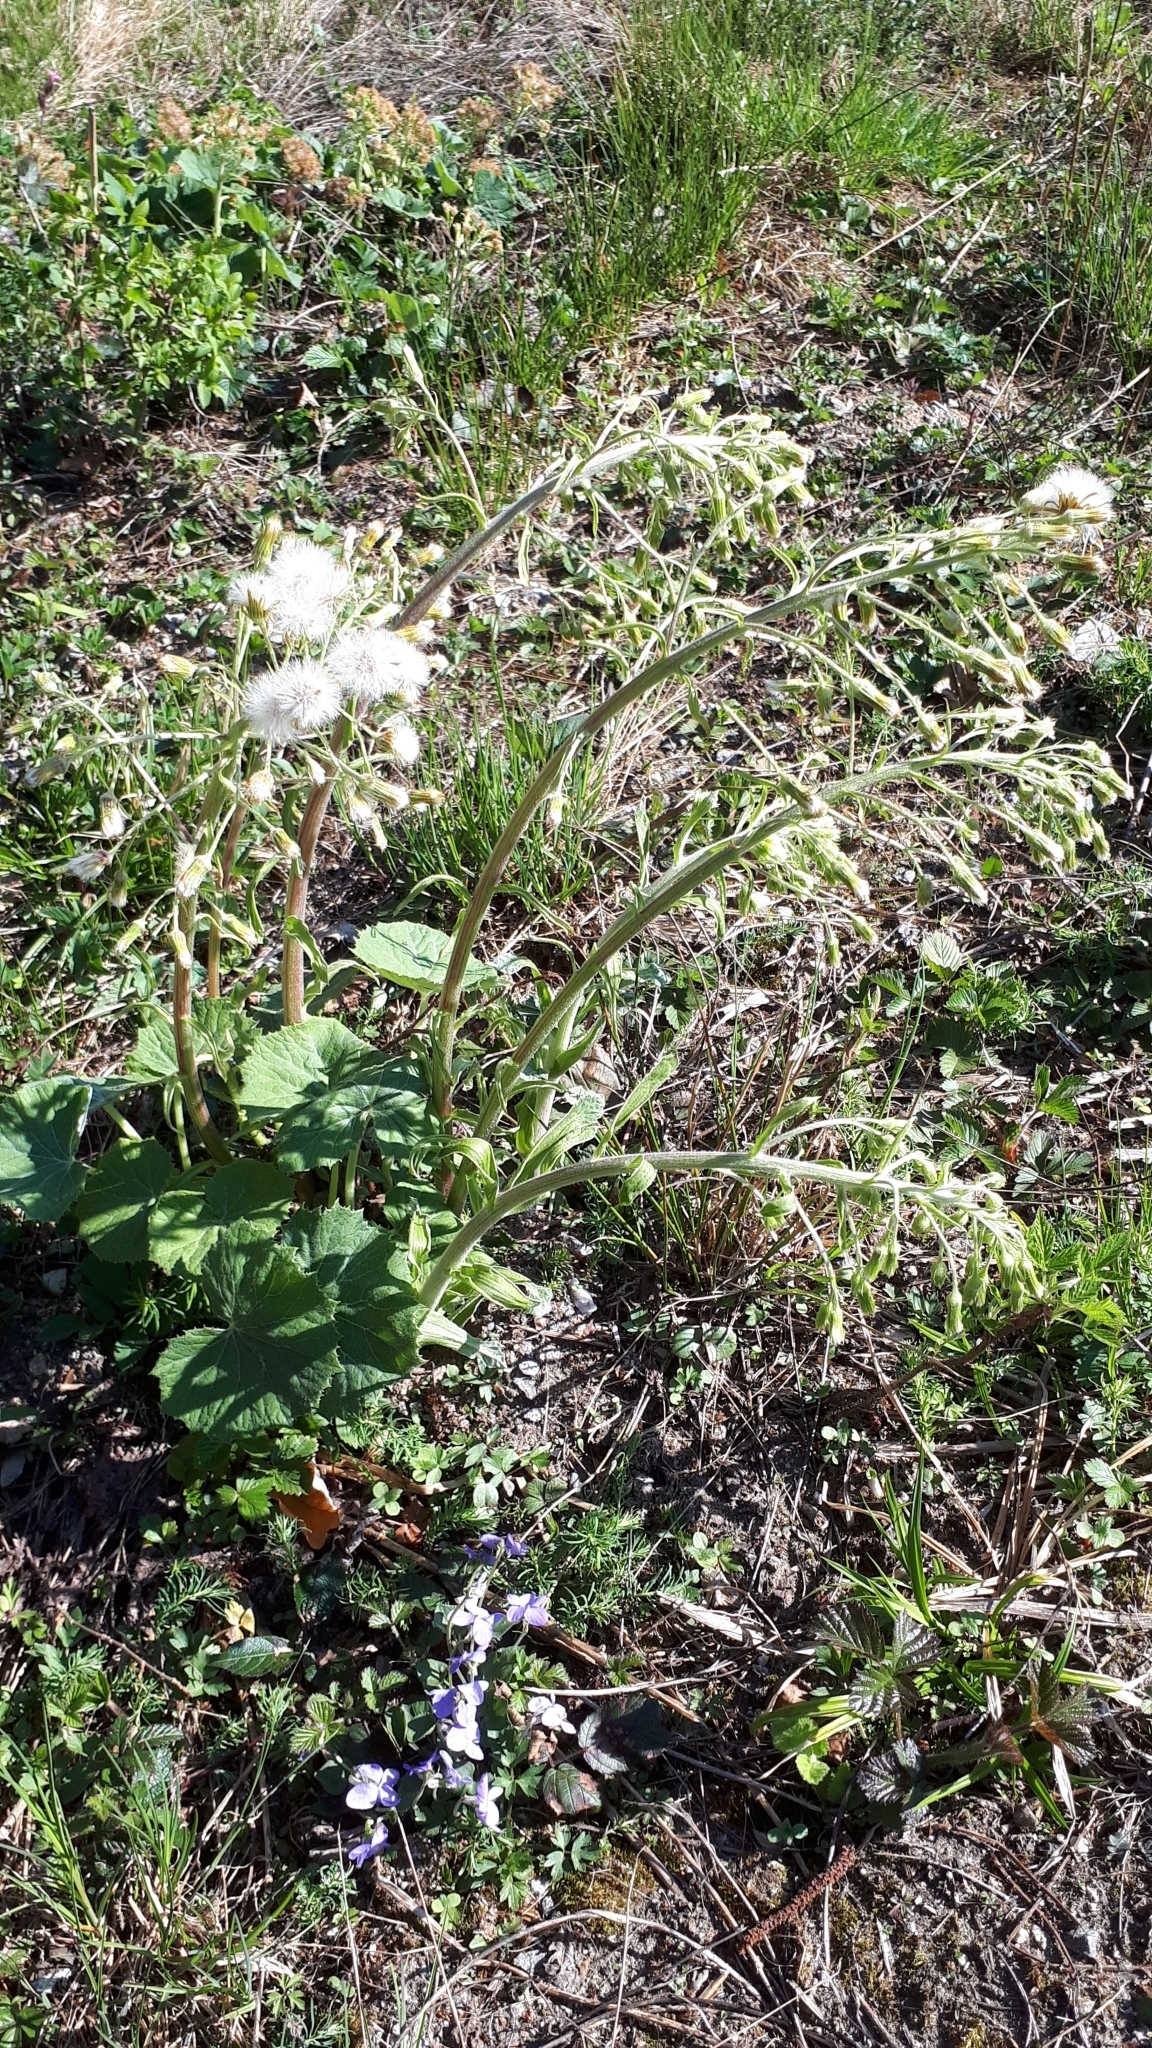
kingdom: Plantae
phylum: Tracheophyta
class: Magnoliopsida
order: Asterales
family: Asteraceae
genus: Petasites
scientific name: Petasites albus
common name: White butterbur
